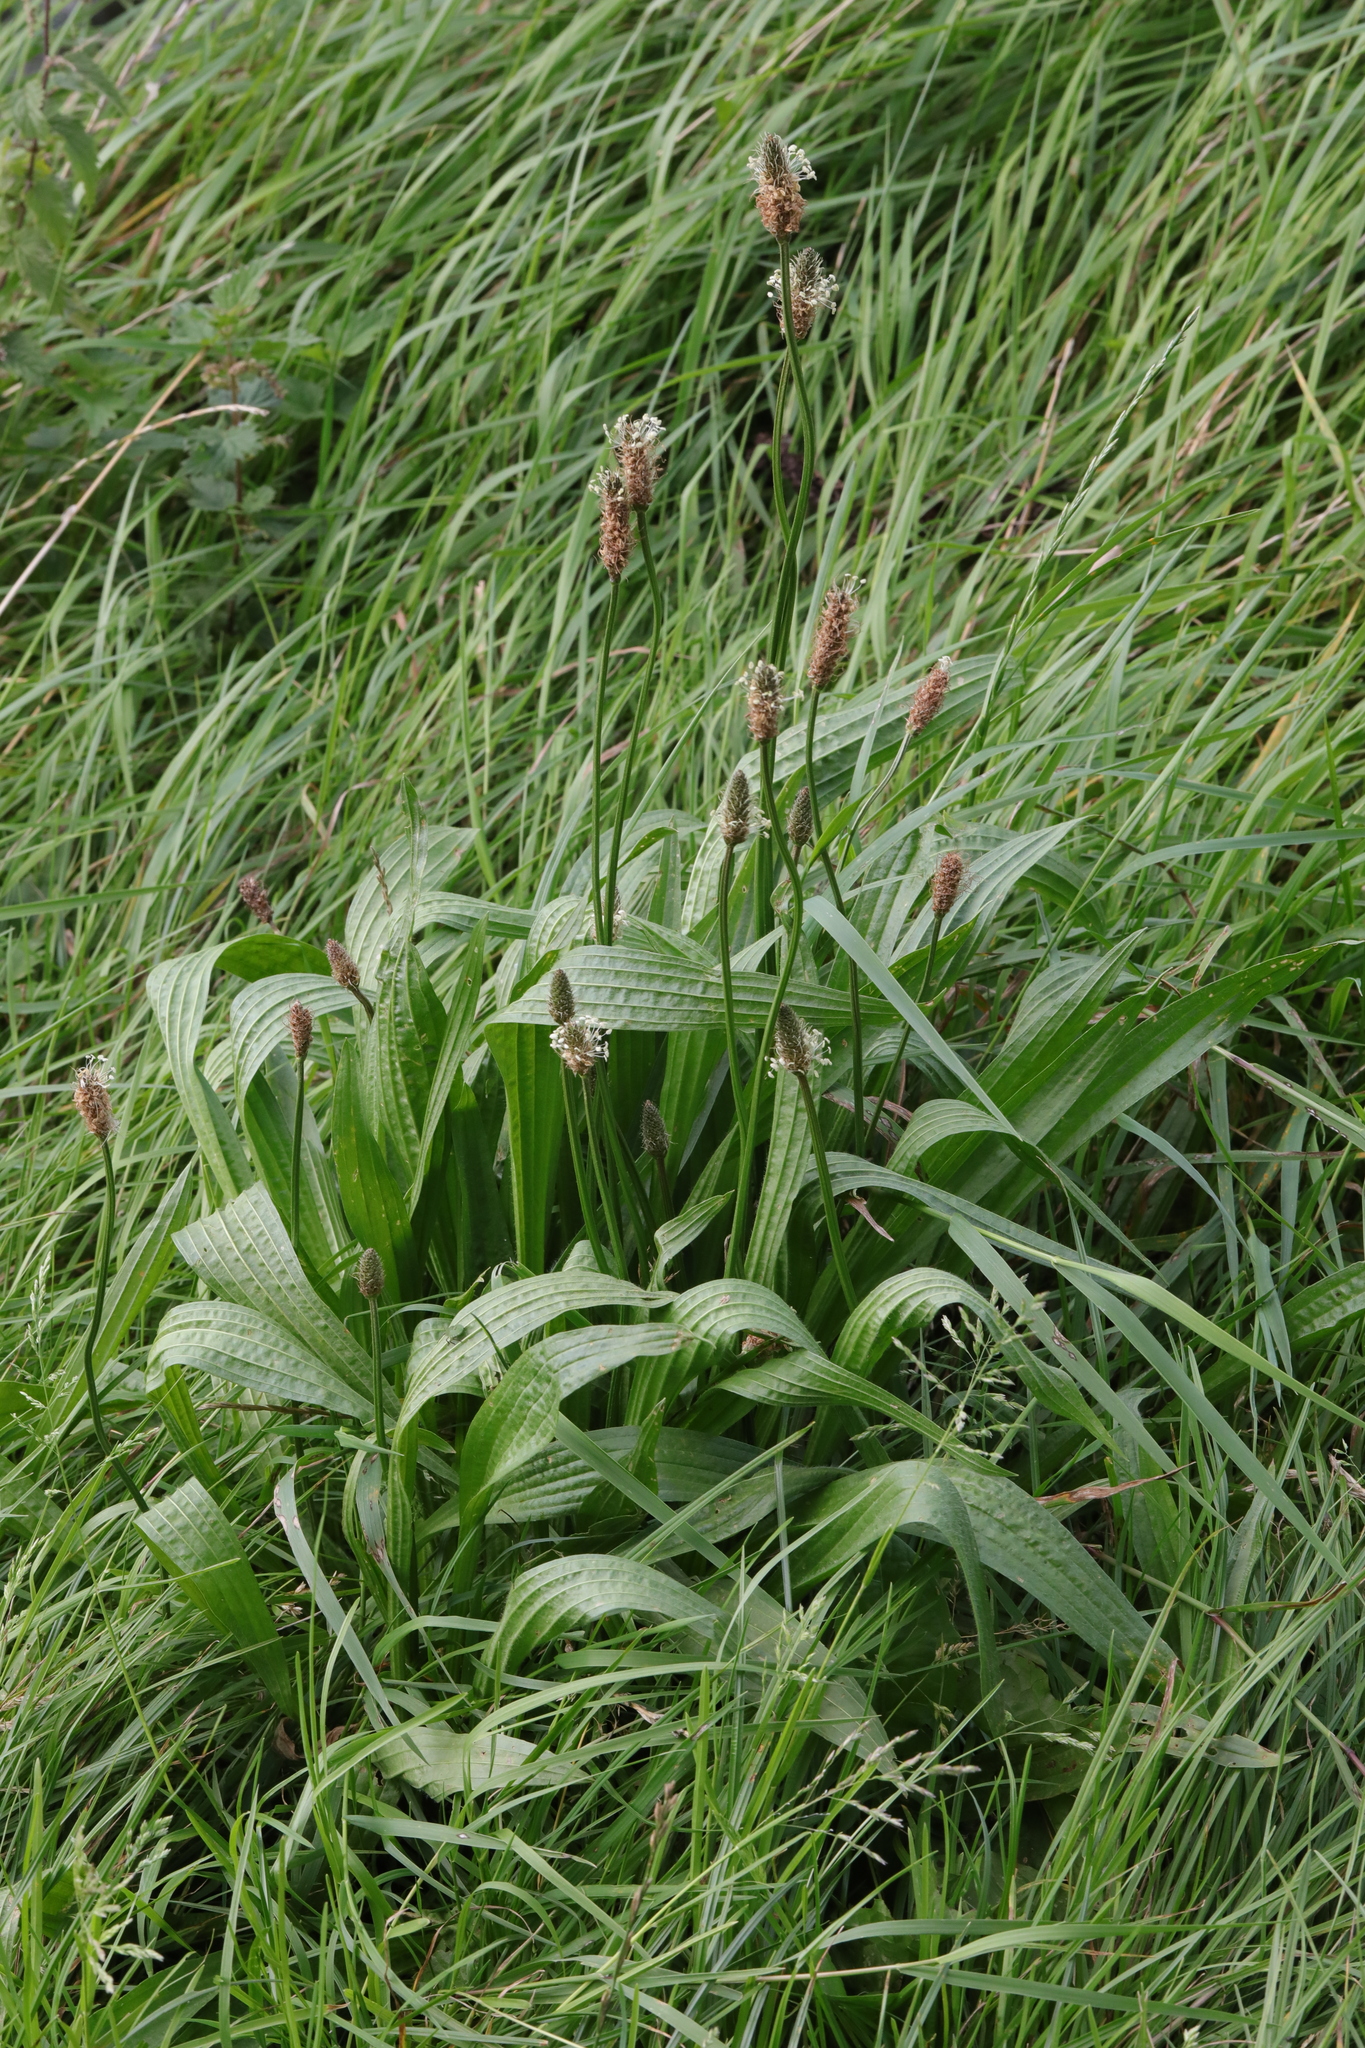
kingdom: Plantae
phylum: Tracheophyta
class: Magnoliopsida
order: Lamiales
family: Plantaginaceae
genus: Plantago
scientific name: Plantago lanceolata
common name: Ribwort plantain
